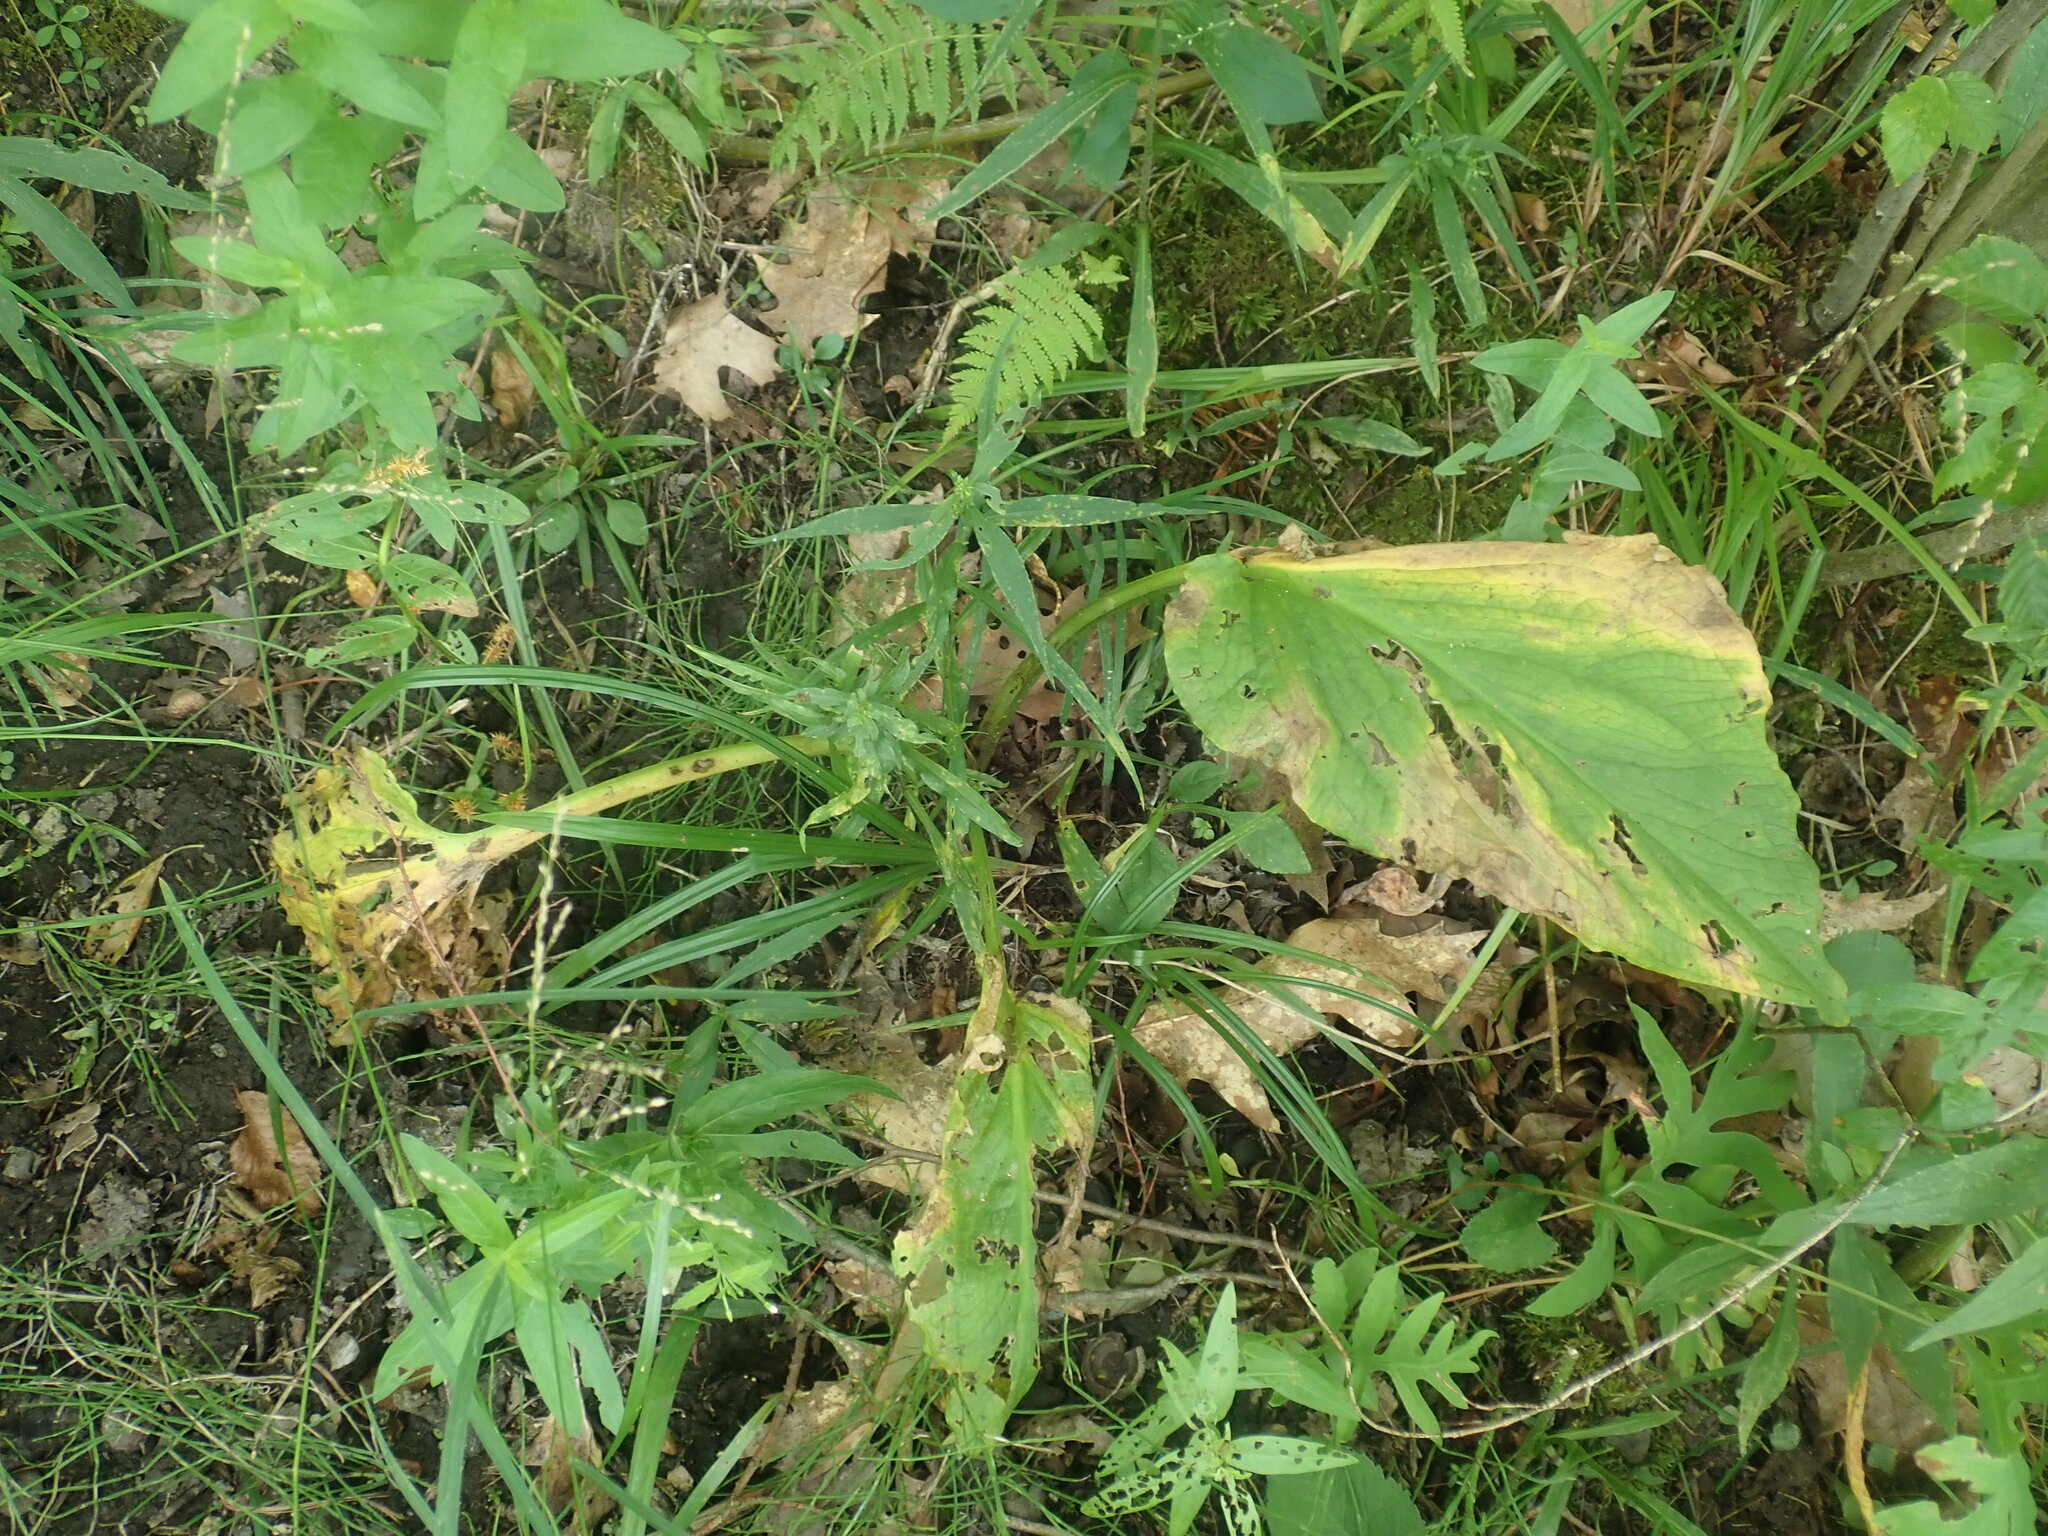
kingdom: Plantae
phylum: Tracheophyta
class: Liliopsida
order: Alismatales
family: Araceae
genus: Symplocarpus
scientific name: Symplocarpus foetidus
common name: Eastern skunk cabbage
